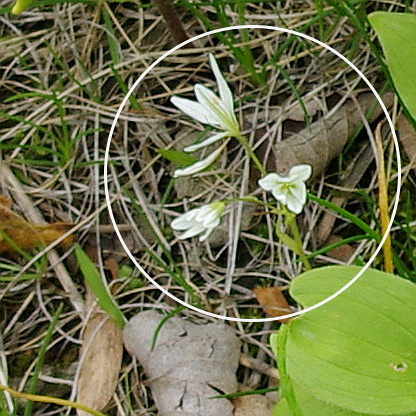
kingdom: Plantae
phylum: Tracheophyta
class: Liliopsida
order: Liliales
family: Liliaceae
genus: Gagea
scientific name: Gagea triflora
